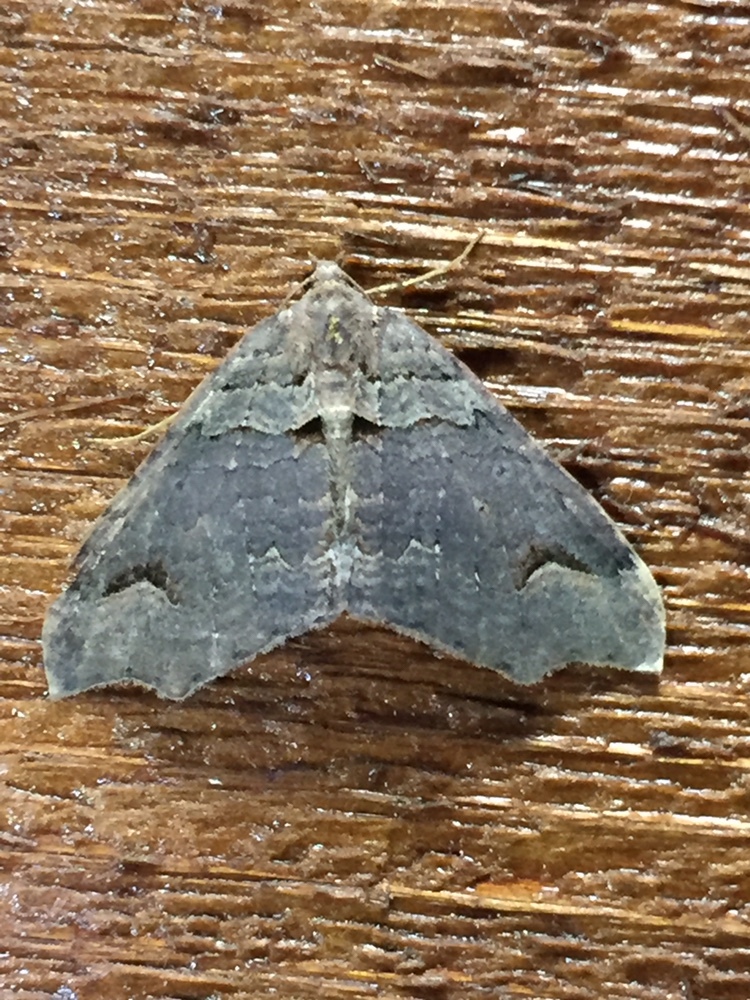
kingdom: Animalia
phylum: Arthropoda
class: Insecta
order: Lepidoptera
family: Geometridae
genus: Austrocidaria
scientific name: Austrocidaria parora
